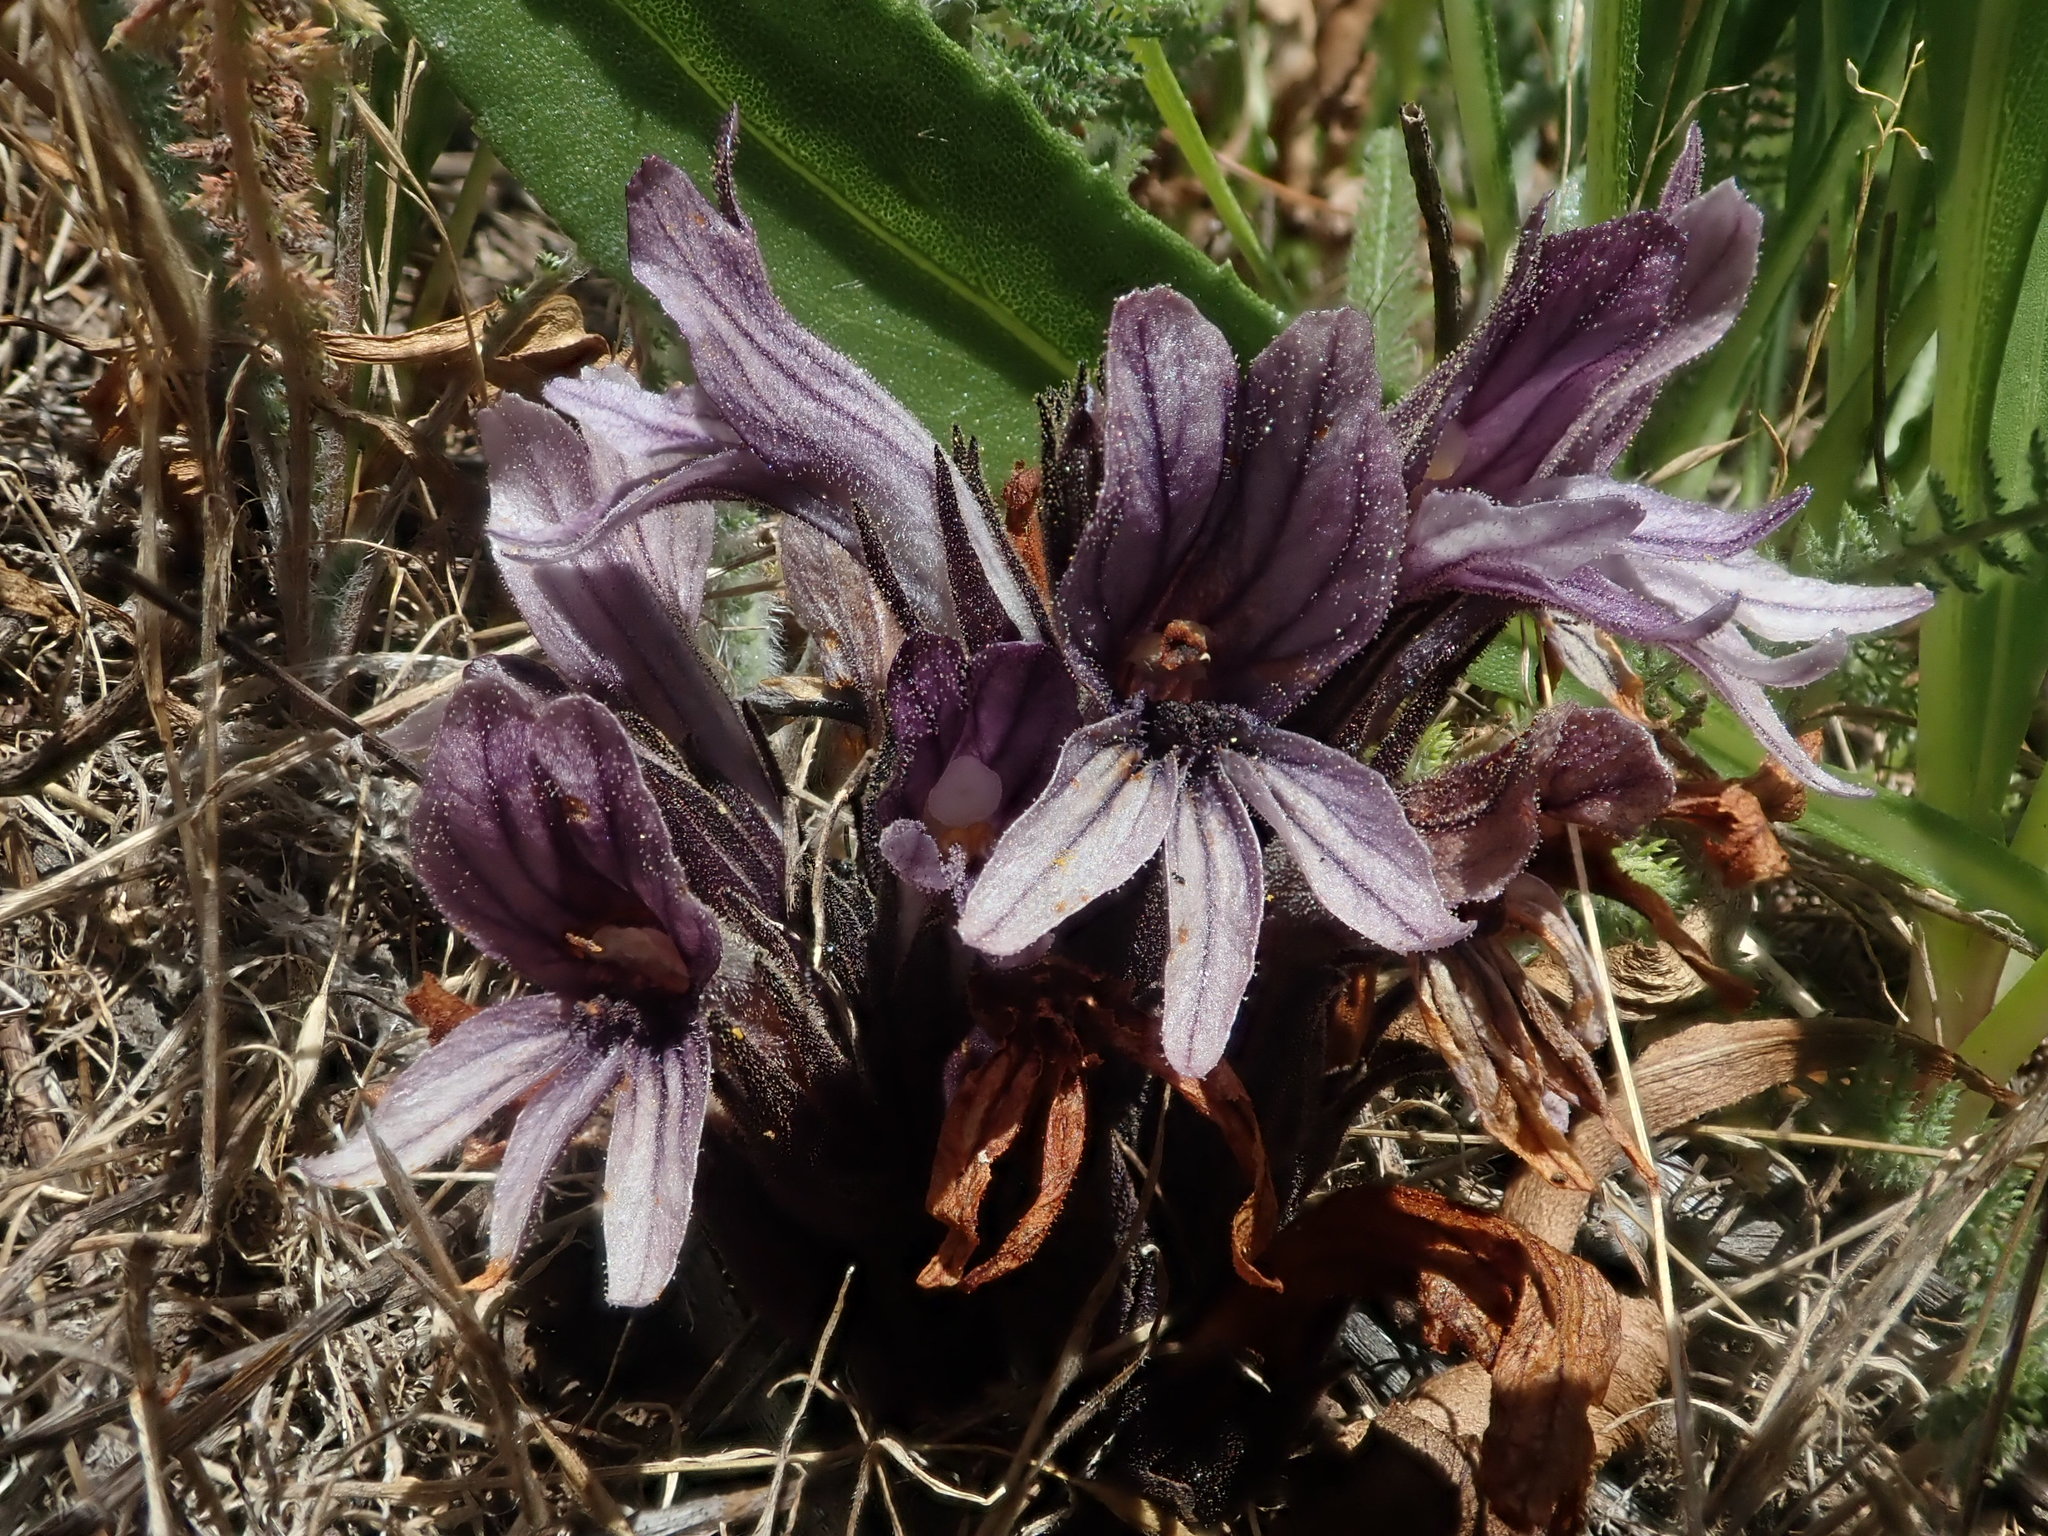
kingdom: Plantae
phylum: Tracheophyta
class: Magnoliopsida
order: Lamiales
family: Orobanchaceae
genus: Aphyllon
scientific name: Aphyllon californicum
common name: California broomrape
